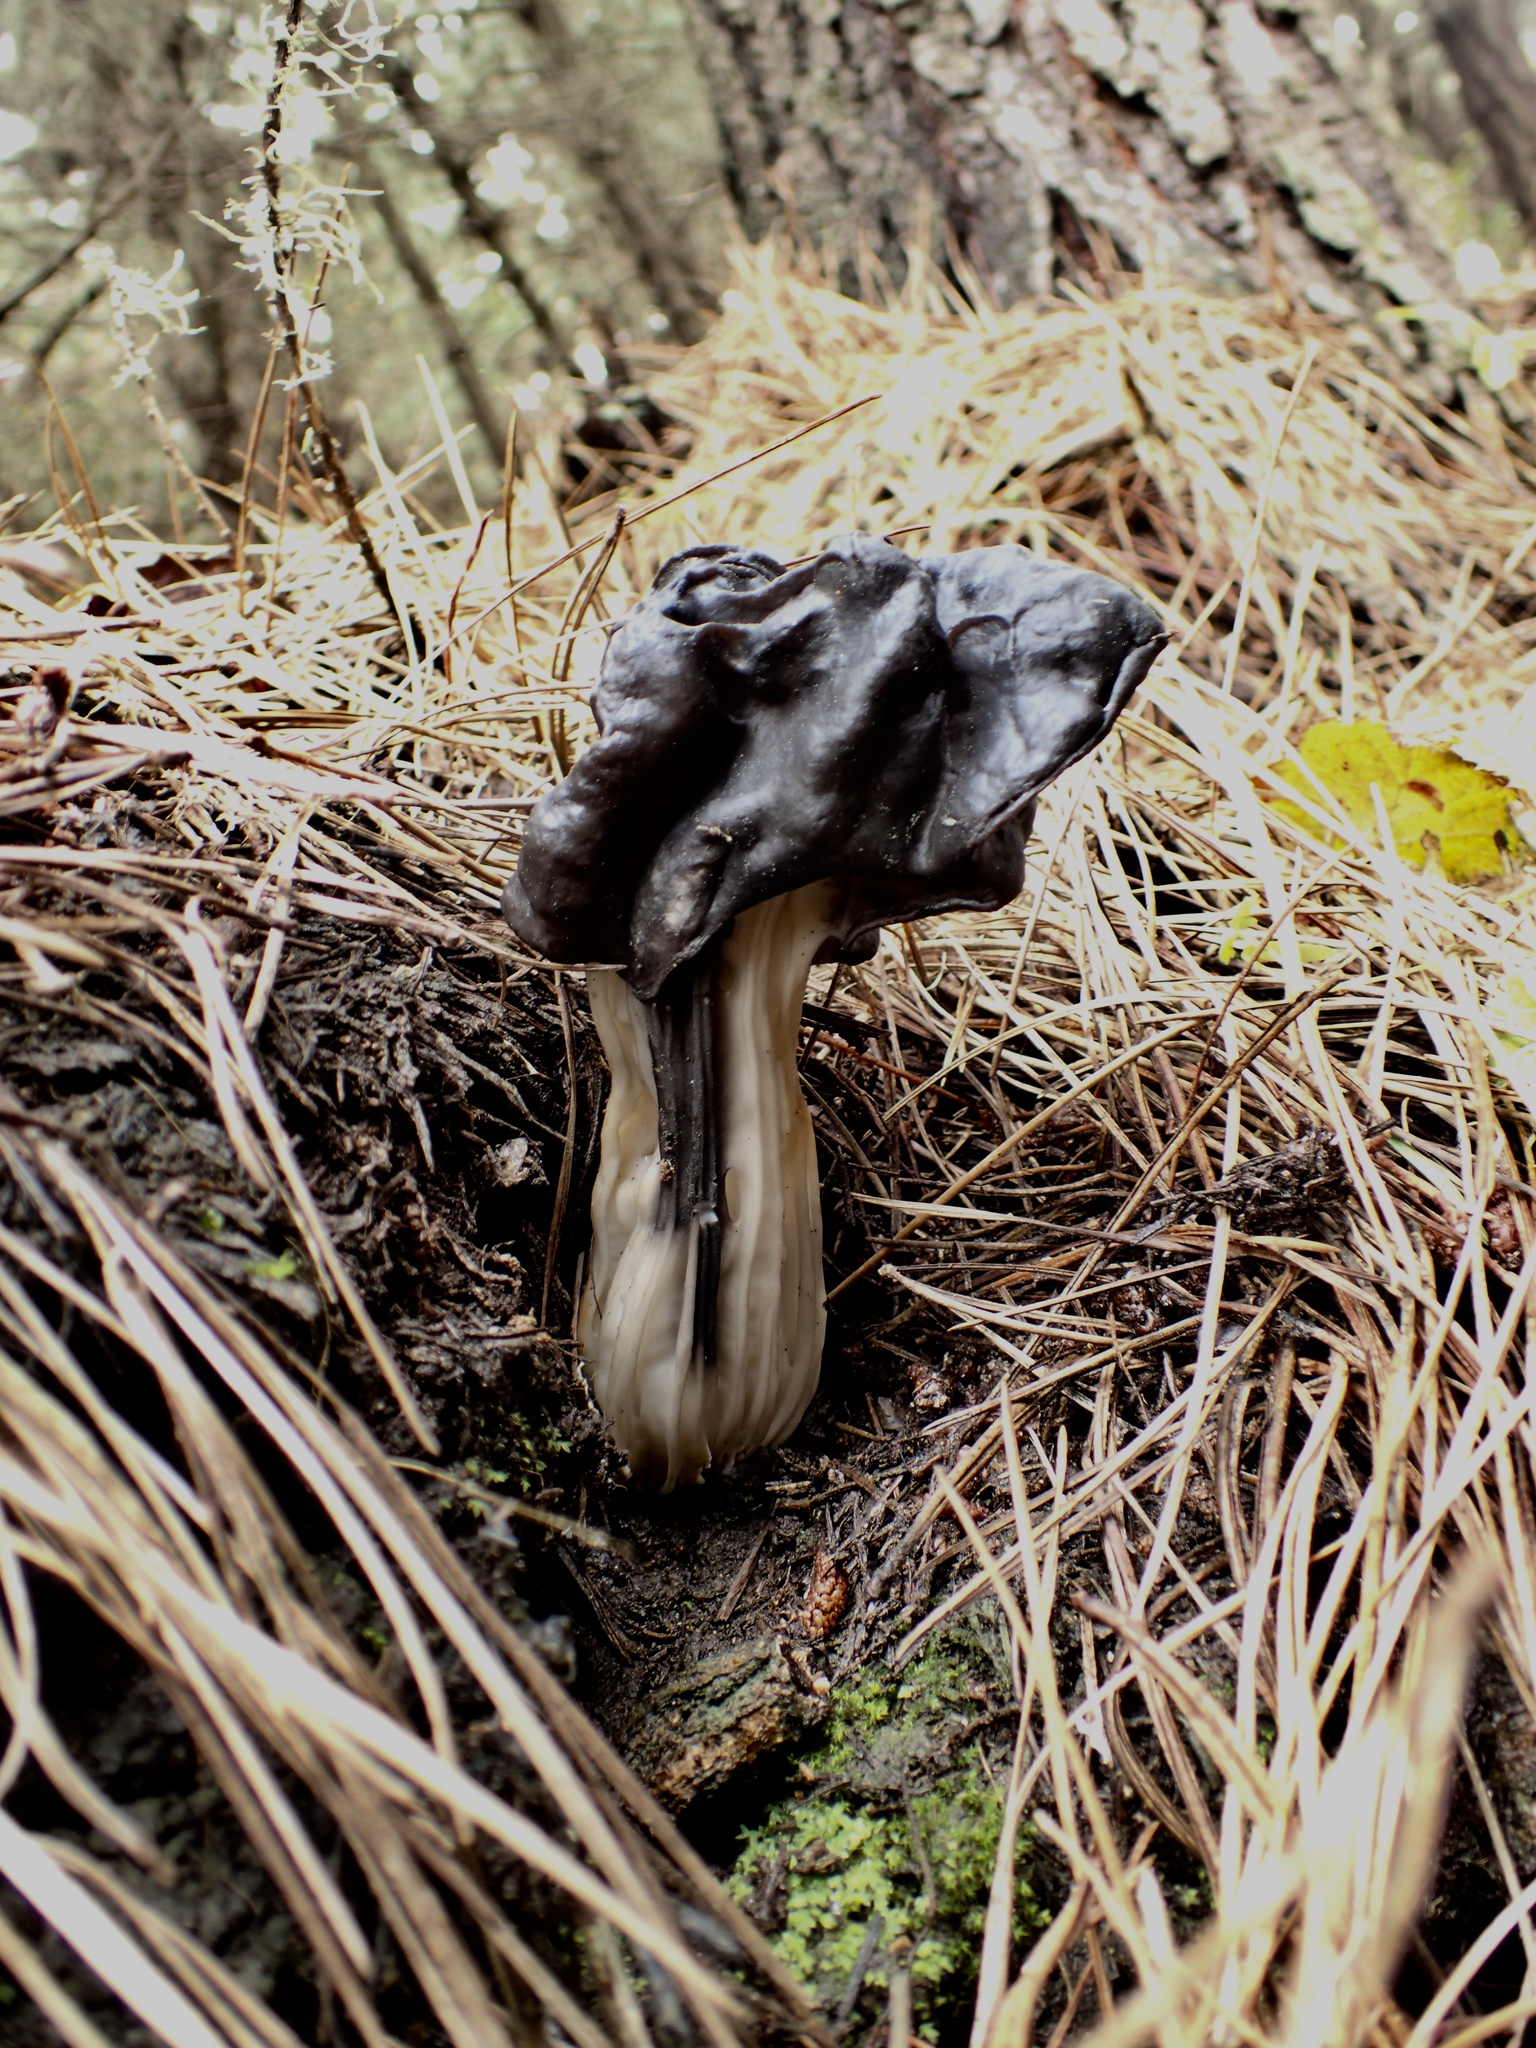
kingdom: Fungi
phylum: Ascomycota
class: Pezizomycetes
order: Pezizales
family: Helvellaceae
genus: Helvella
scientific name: Helvella vespertina
